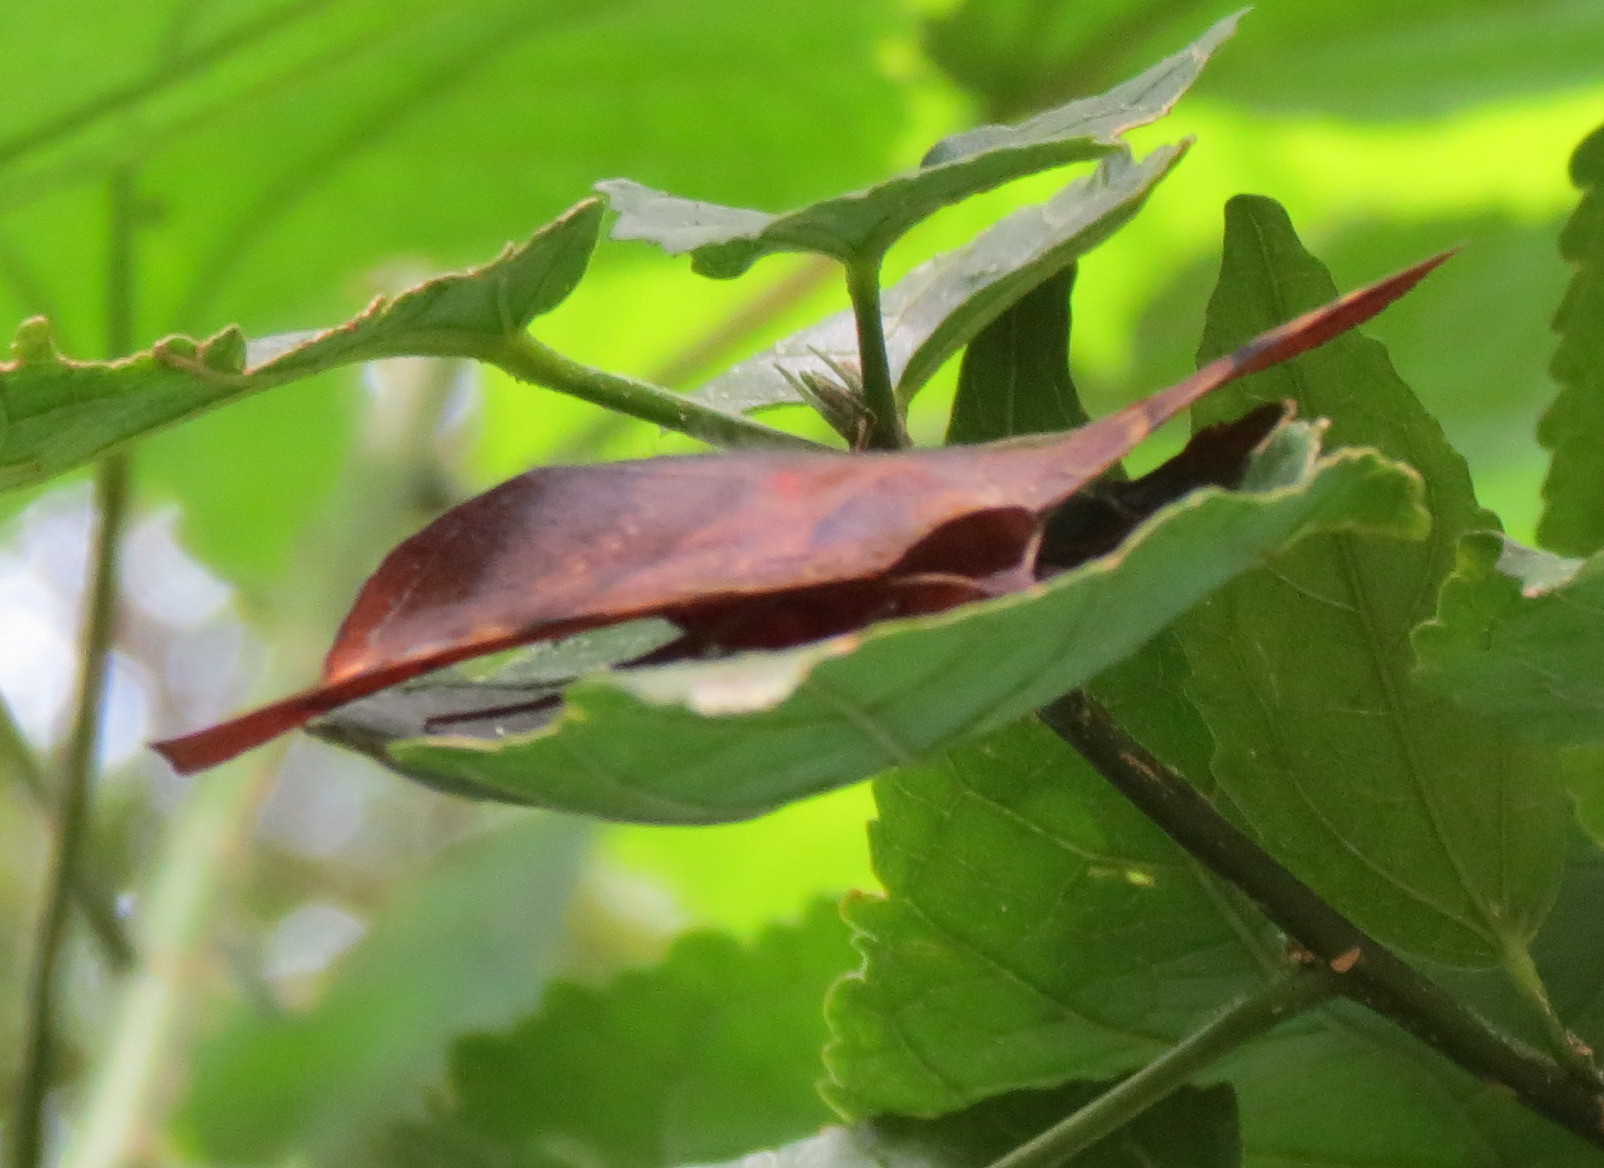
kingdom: Animalia
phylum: Arthropoda
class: Insecta
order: Lepidoptera
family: Erebidae
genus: Hypopyra
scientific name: Hypopyra capensis
